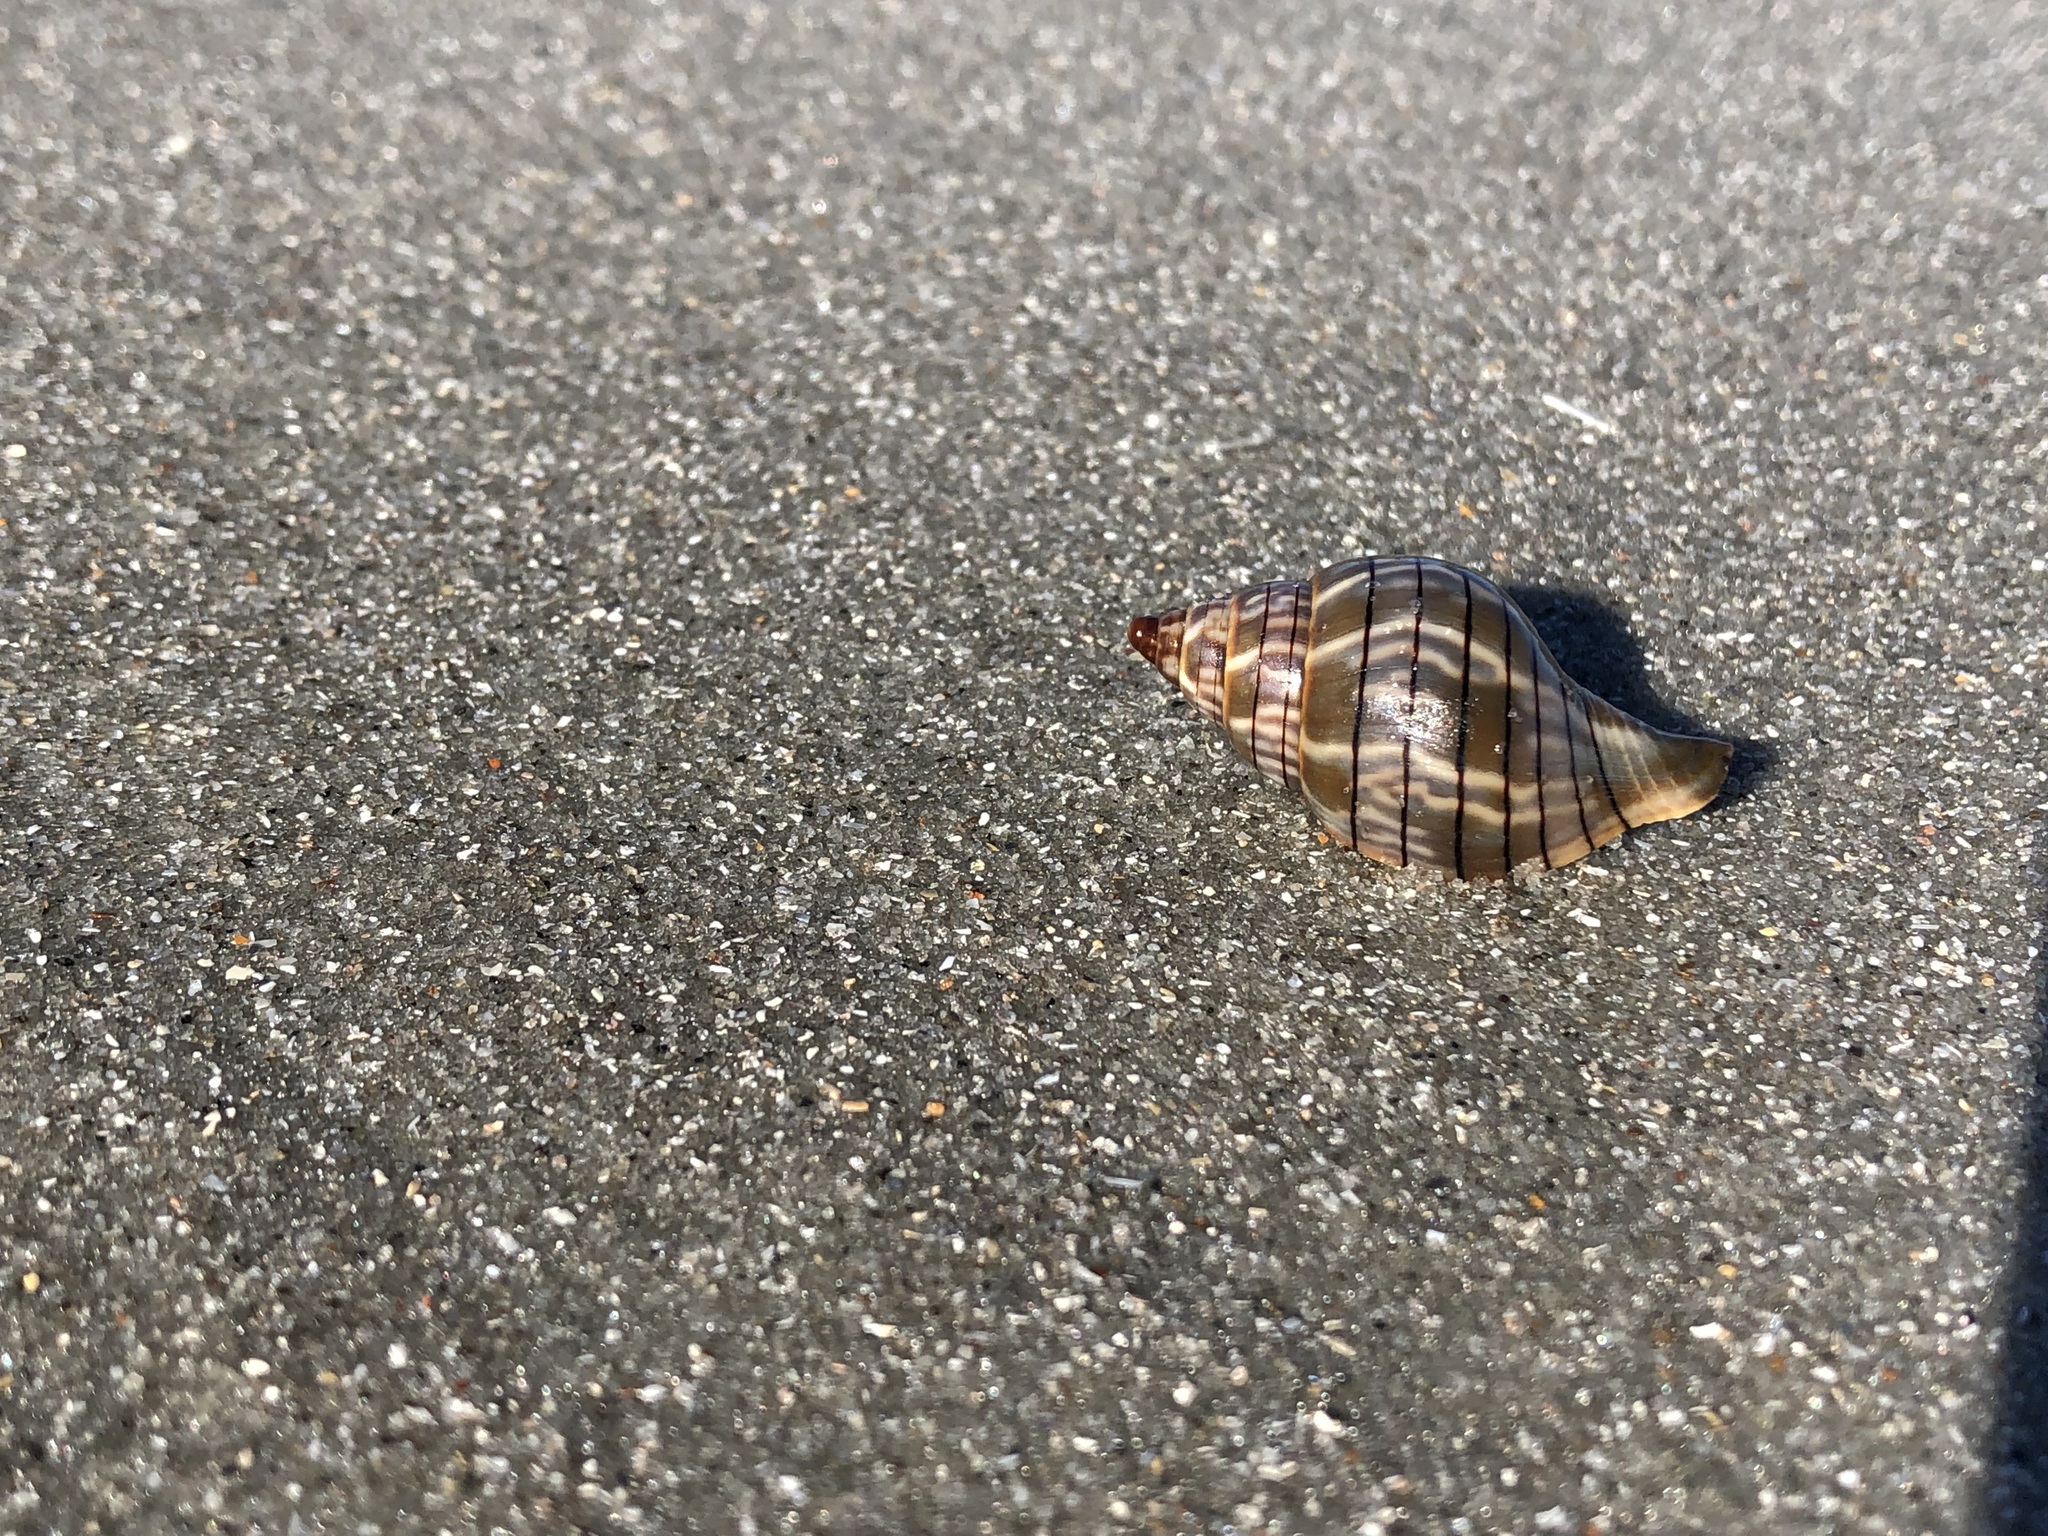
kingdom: Animalia
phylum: Mollusca
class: Gastropoda
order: Neogastropoda
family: Fasciolariidae
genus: Cinctura
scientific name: Cinctura hunteria
